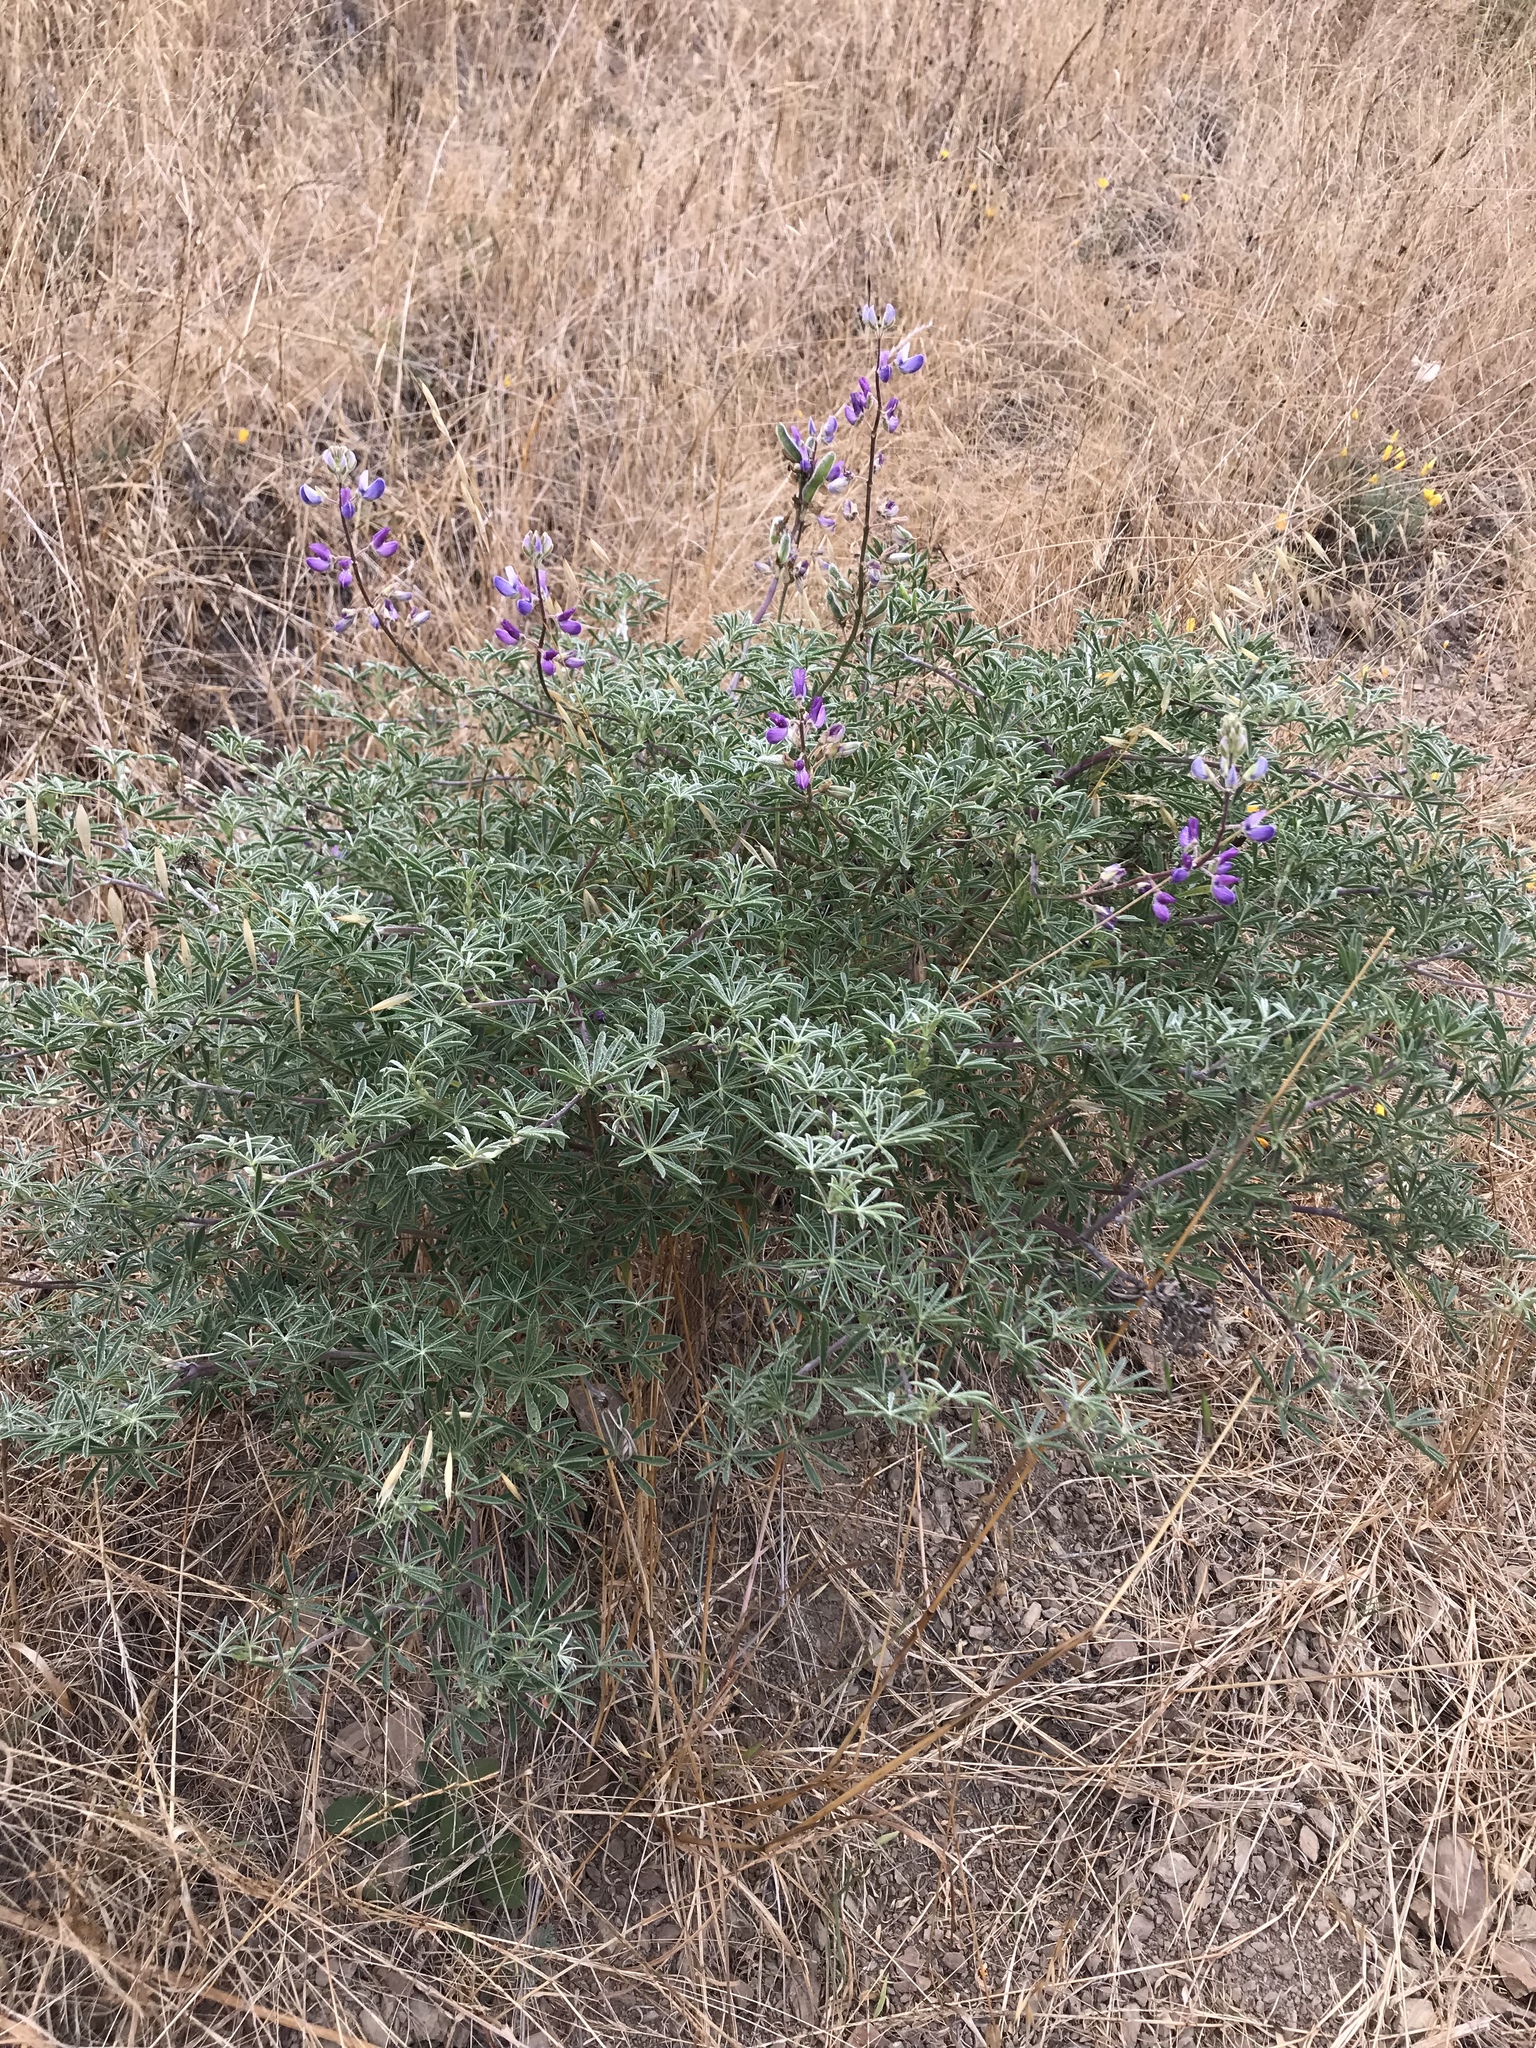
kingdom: Plantae
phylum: Tracheophyta
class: Magnoliopsida
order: Fabales
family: Fabaceae
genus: Lupinus
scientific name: Lupinus arboreus
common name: Yellow bush lupine
